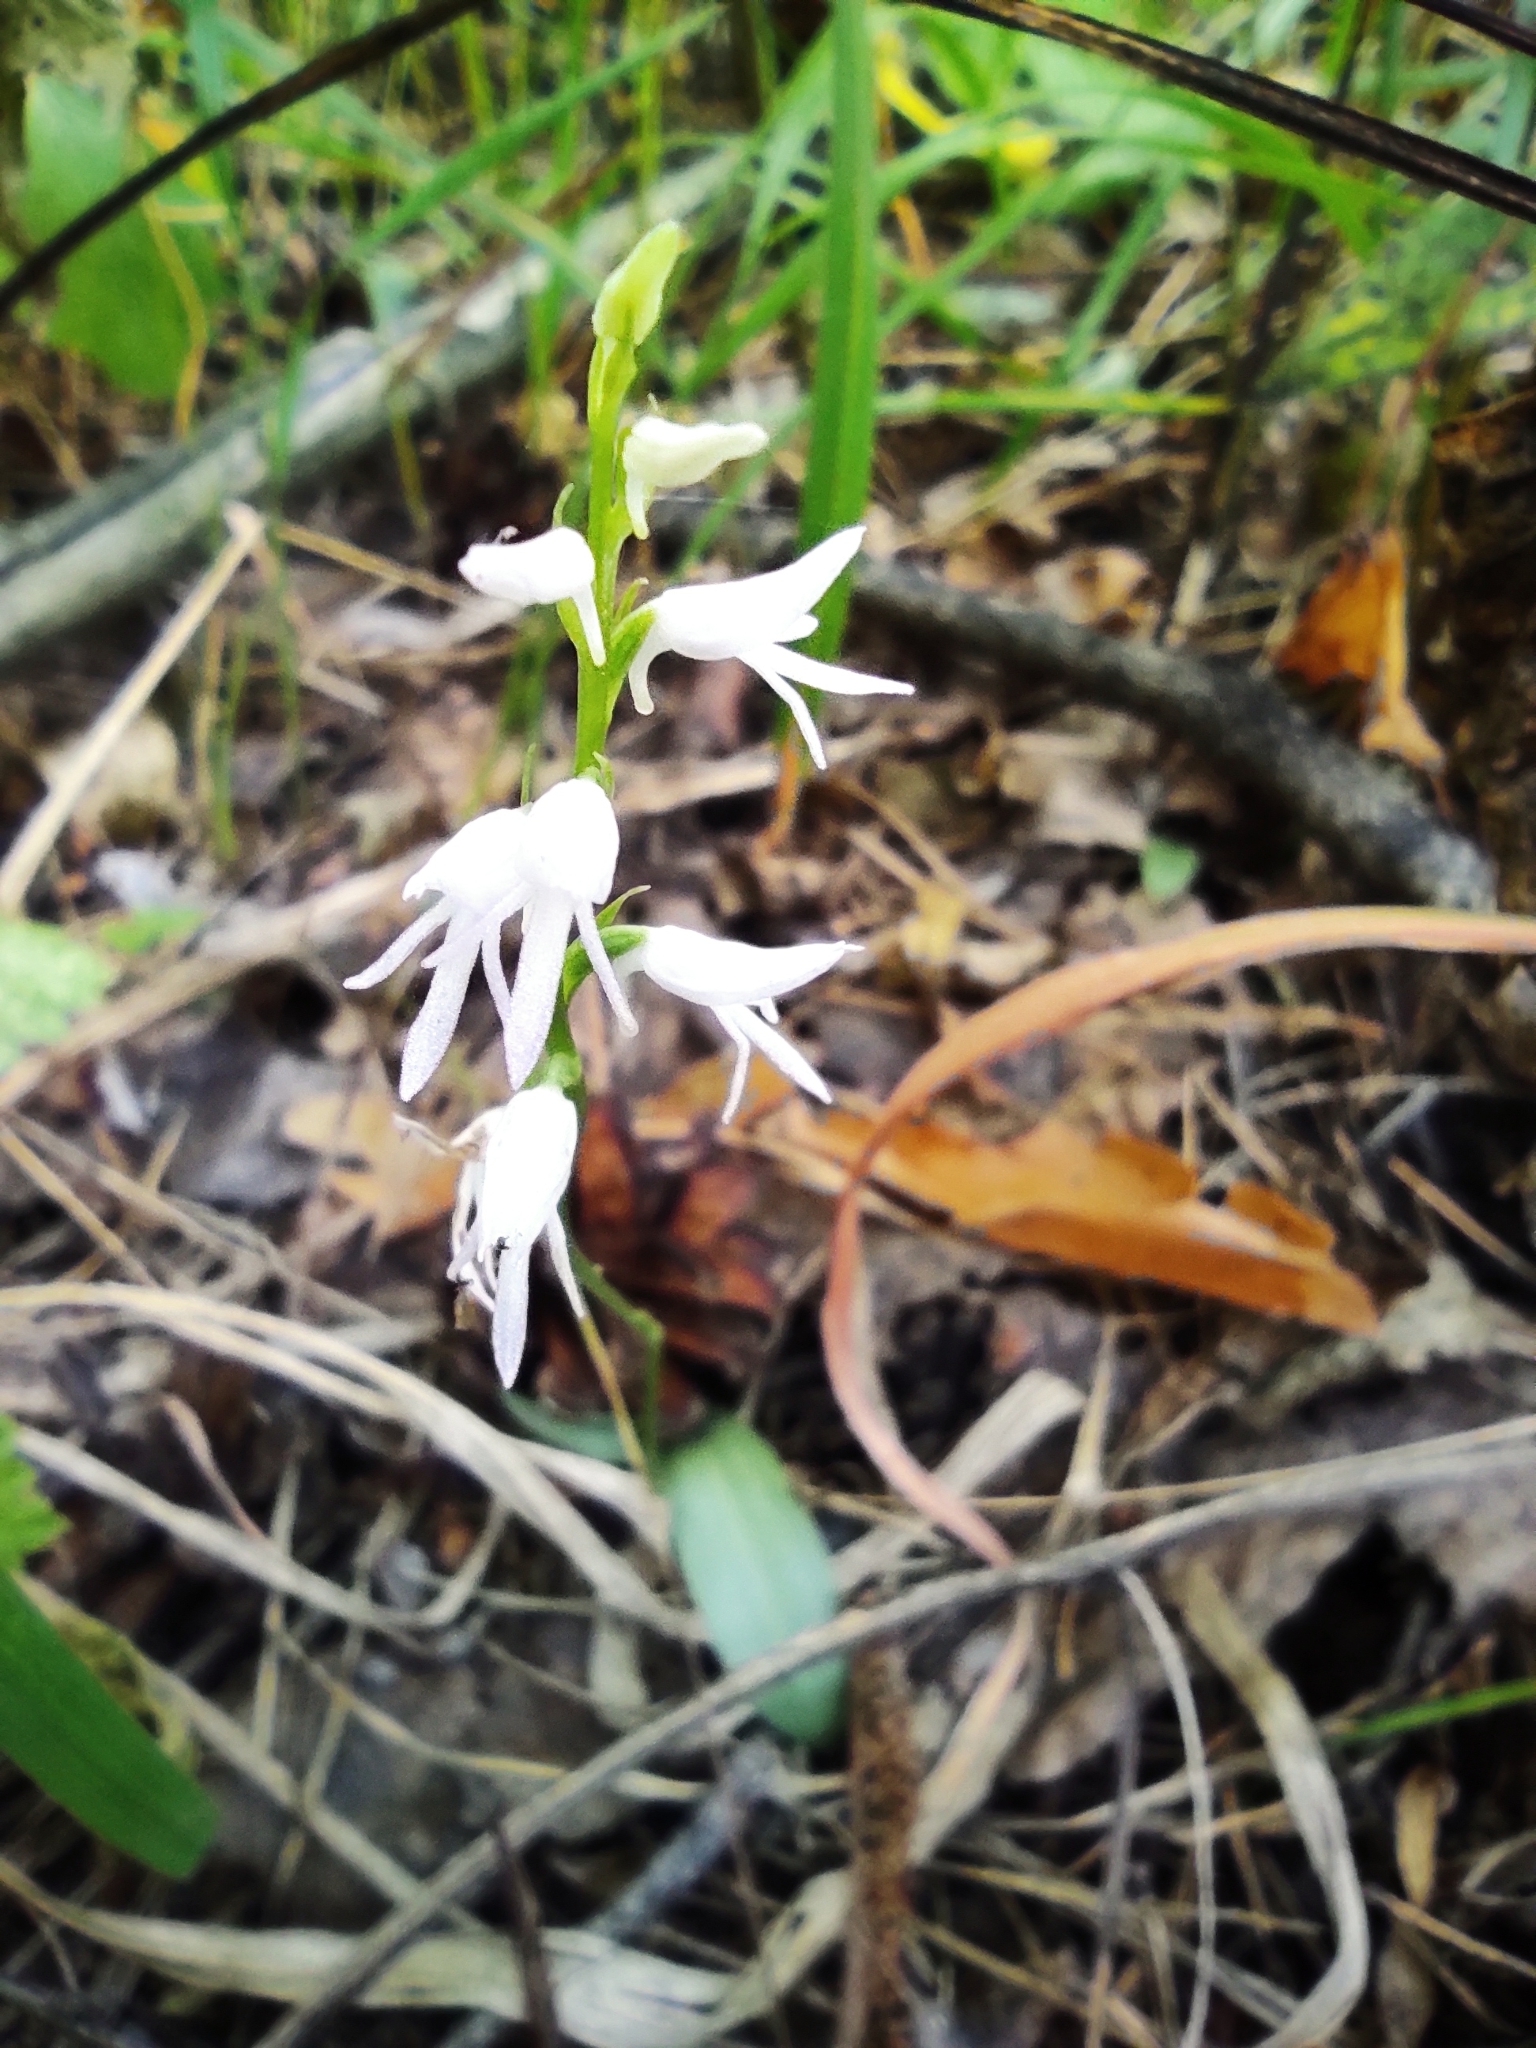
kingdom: Plantae
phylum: Tracheophyta
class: Liliopsida
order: Asparagales
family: Orchidaceae
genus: Hemipilia
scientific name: Hemipilia cucullata
